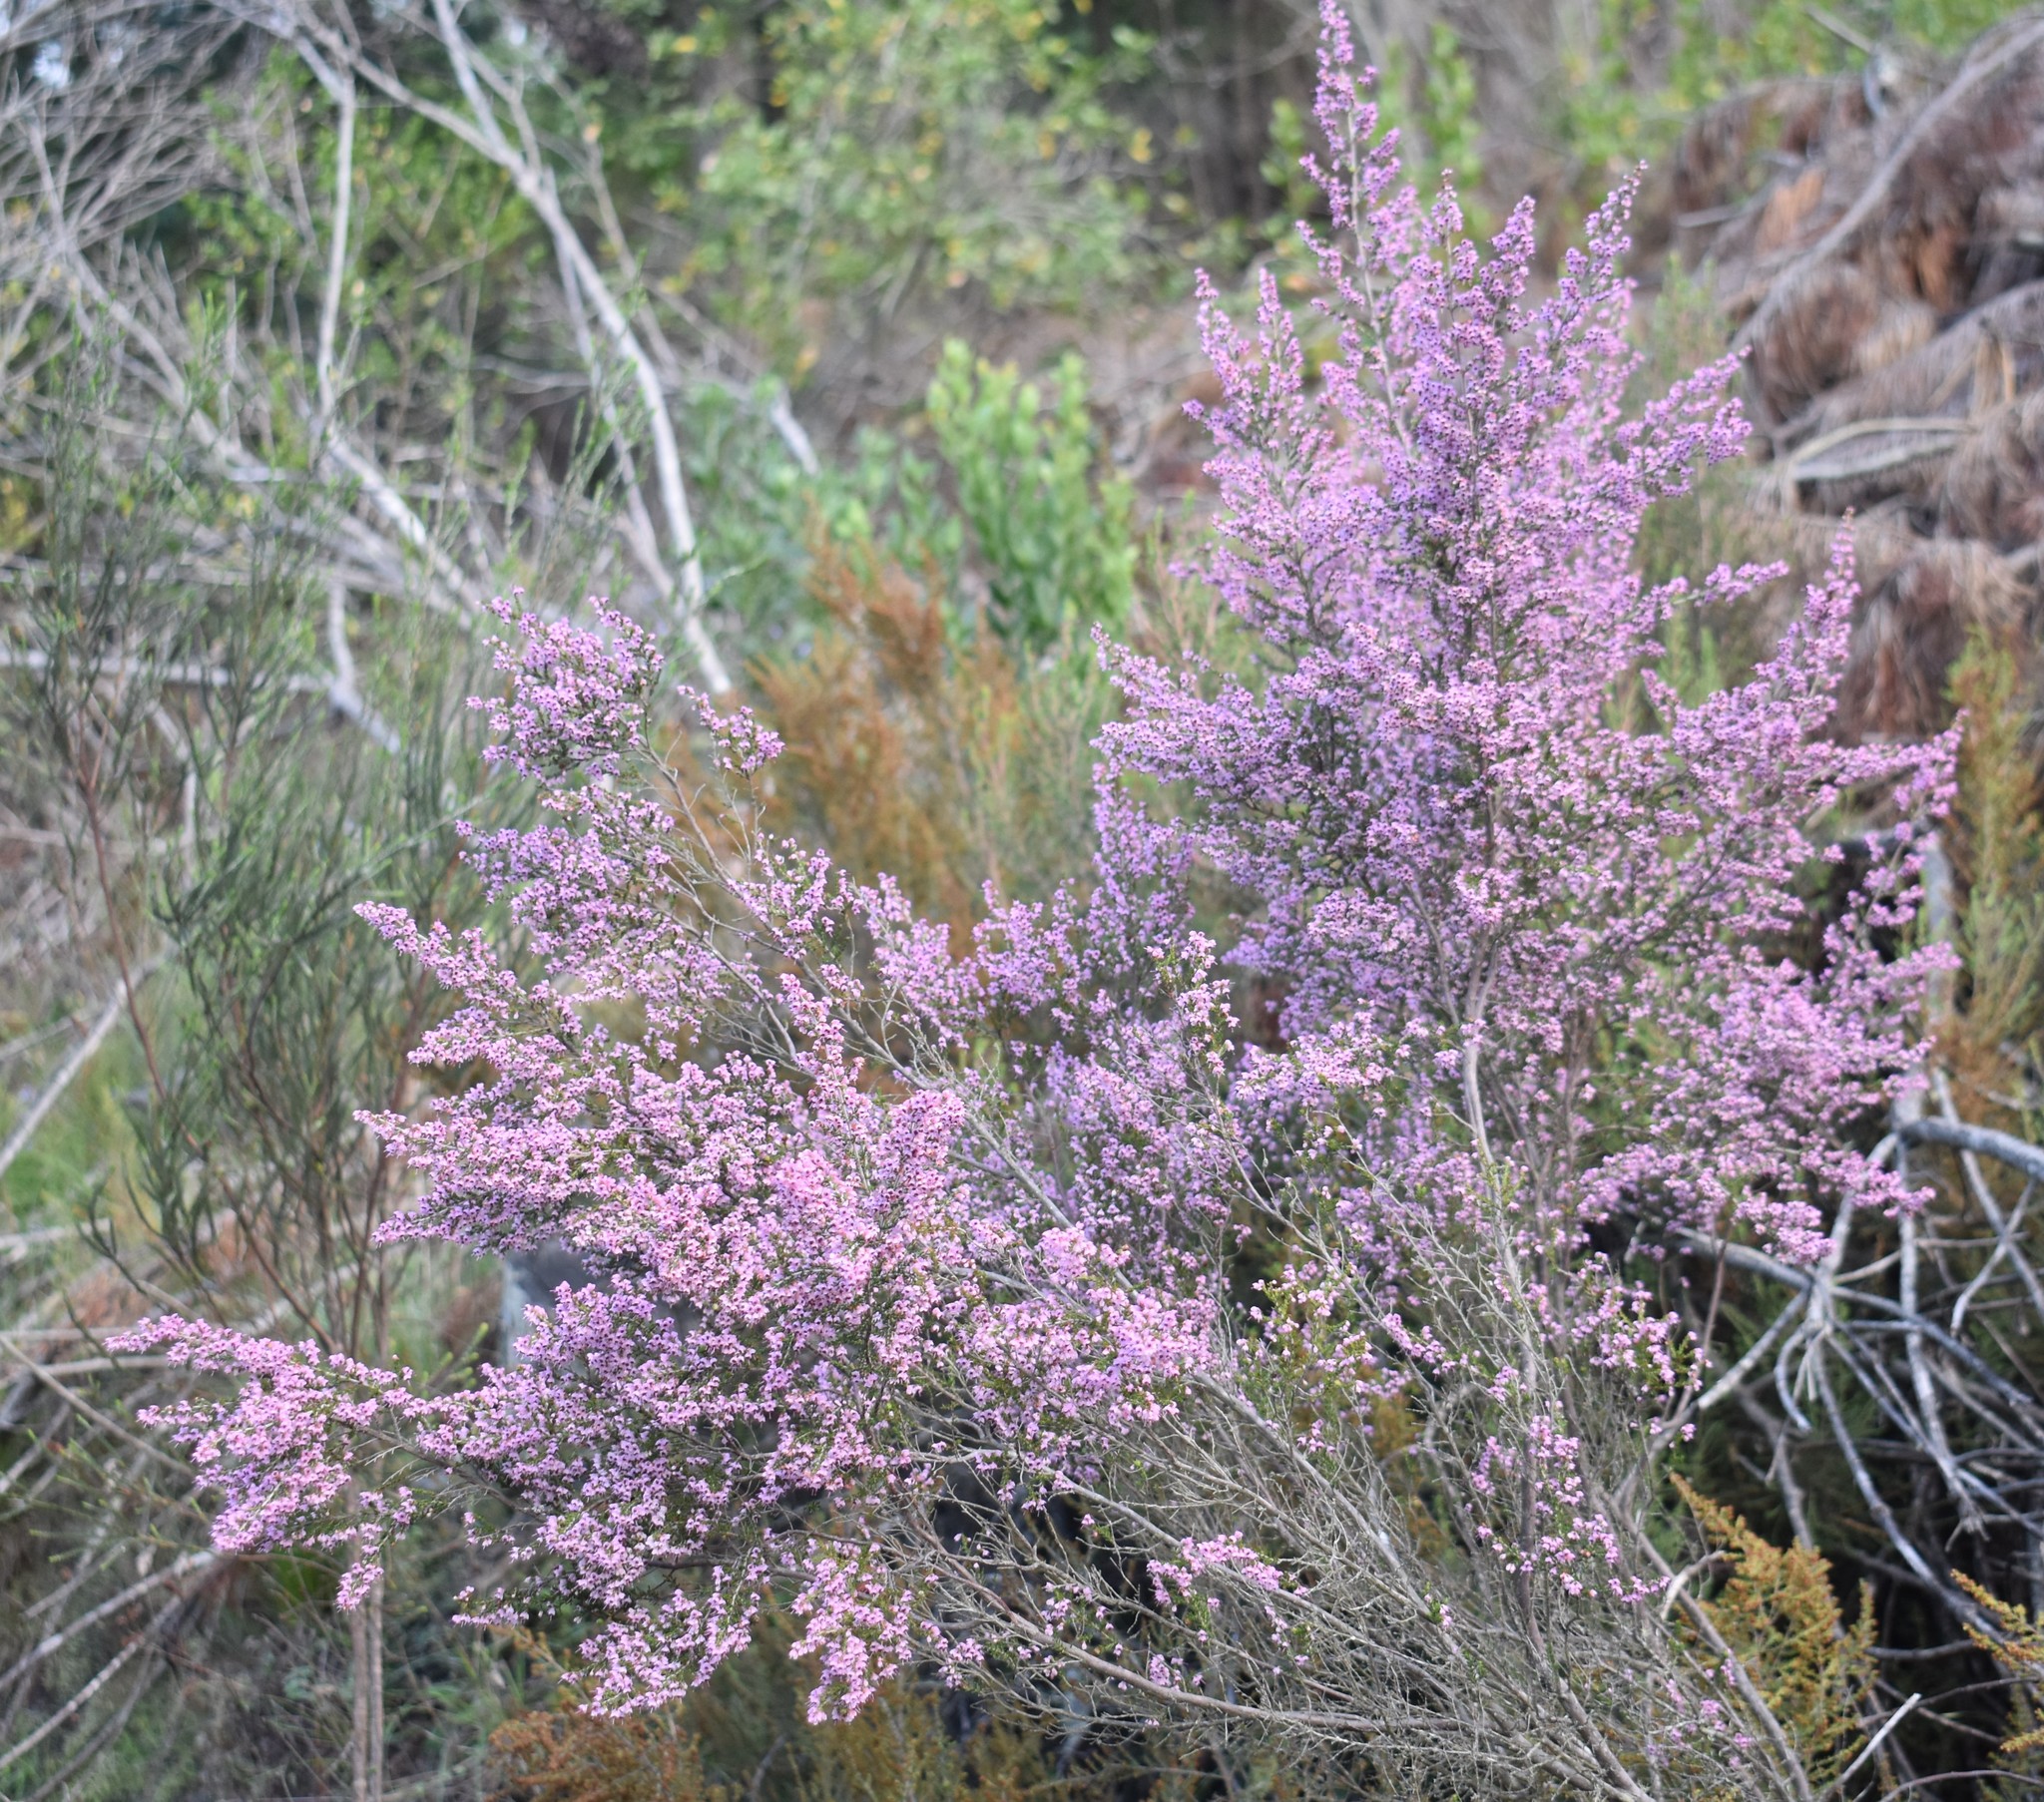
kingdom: Plantae
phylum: Tracheophyta
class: Magnoliopsida
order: Ericales
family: Ericaceae
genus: Erica
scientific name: Erica sparsa
